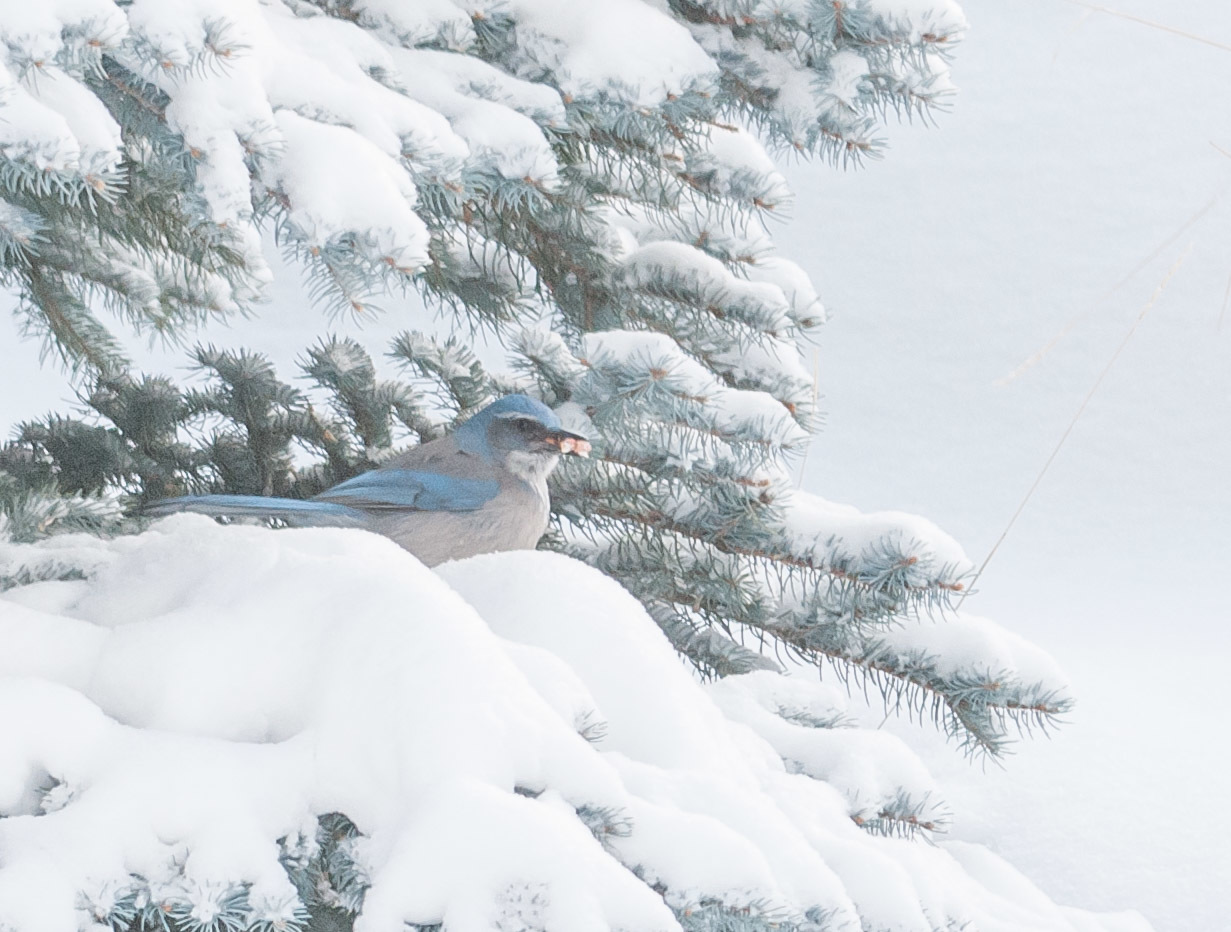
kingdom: Animalia
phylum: Chordata
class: Aves
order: Passeriformes
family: Corvidae
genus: Aphelocoma
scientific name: Aphelocoma woodhouseii
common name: Woodhouse's scrub-jay
